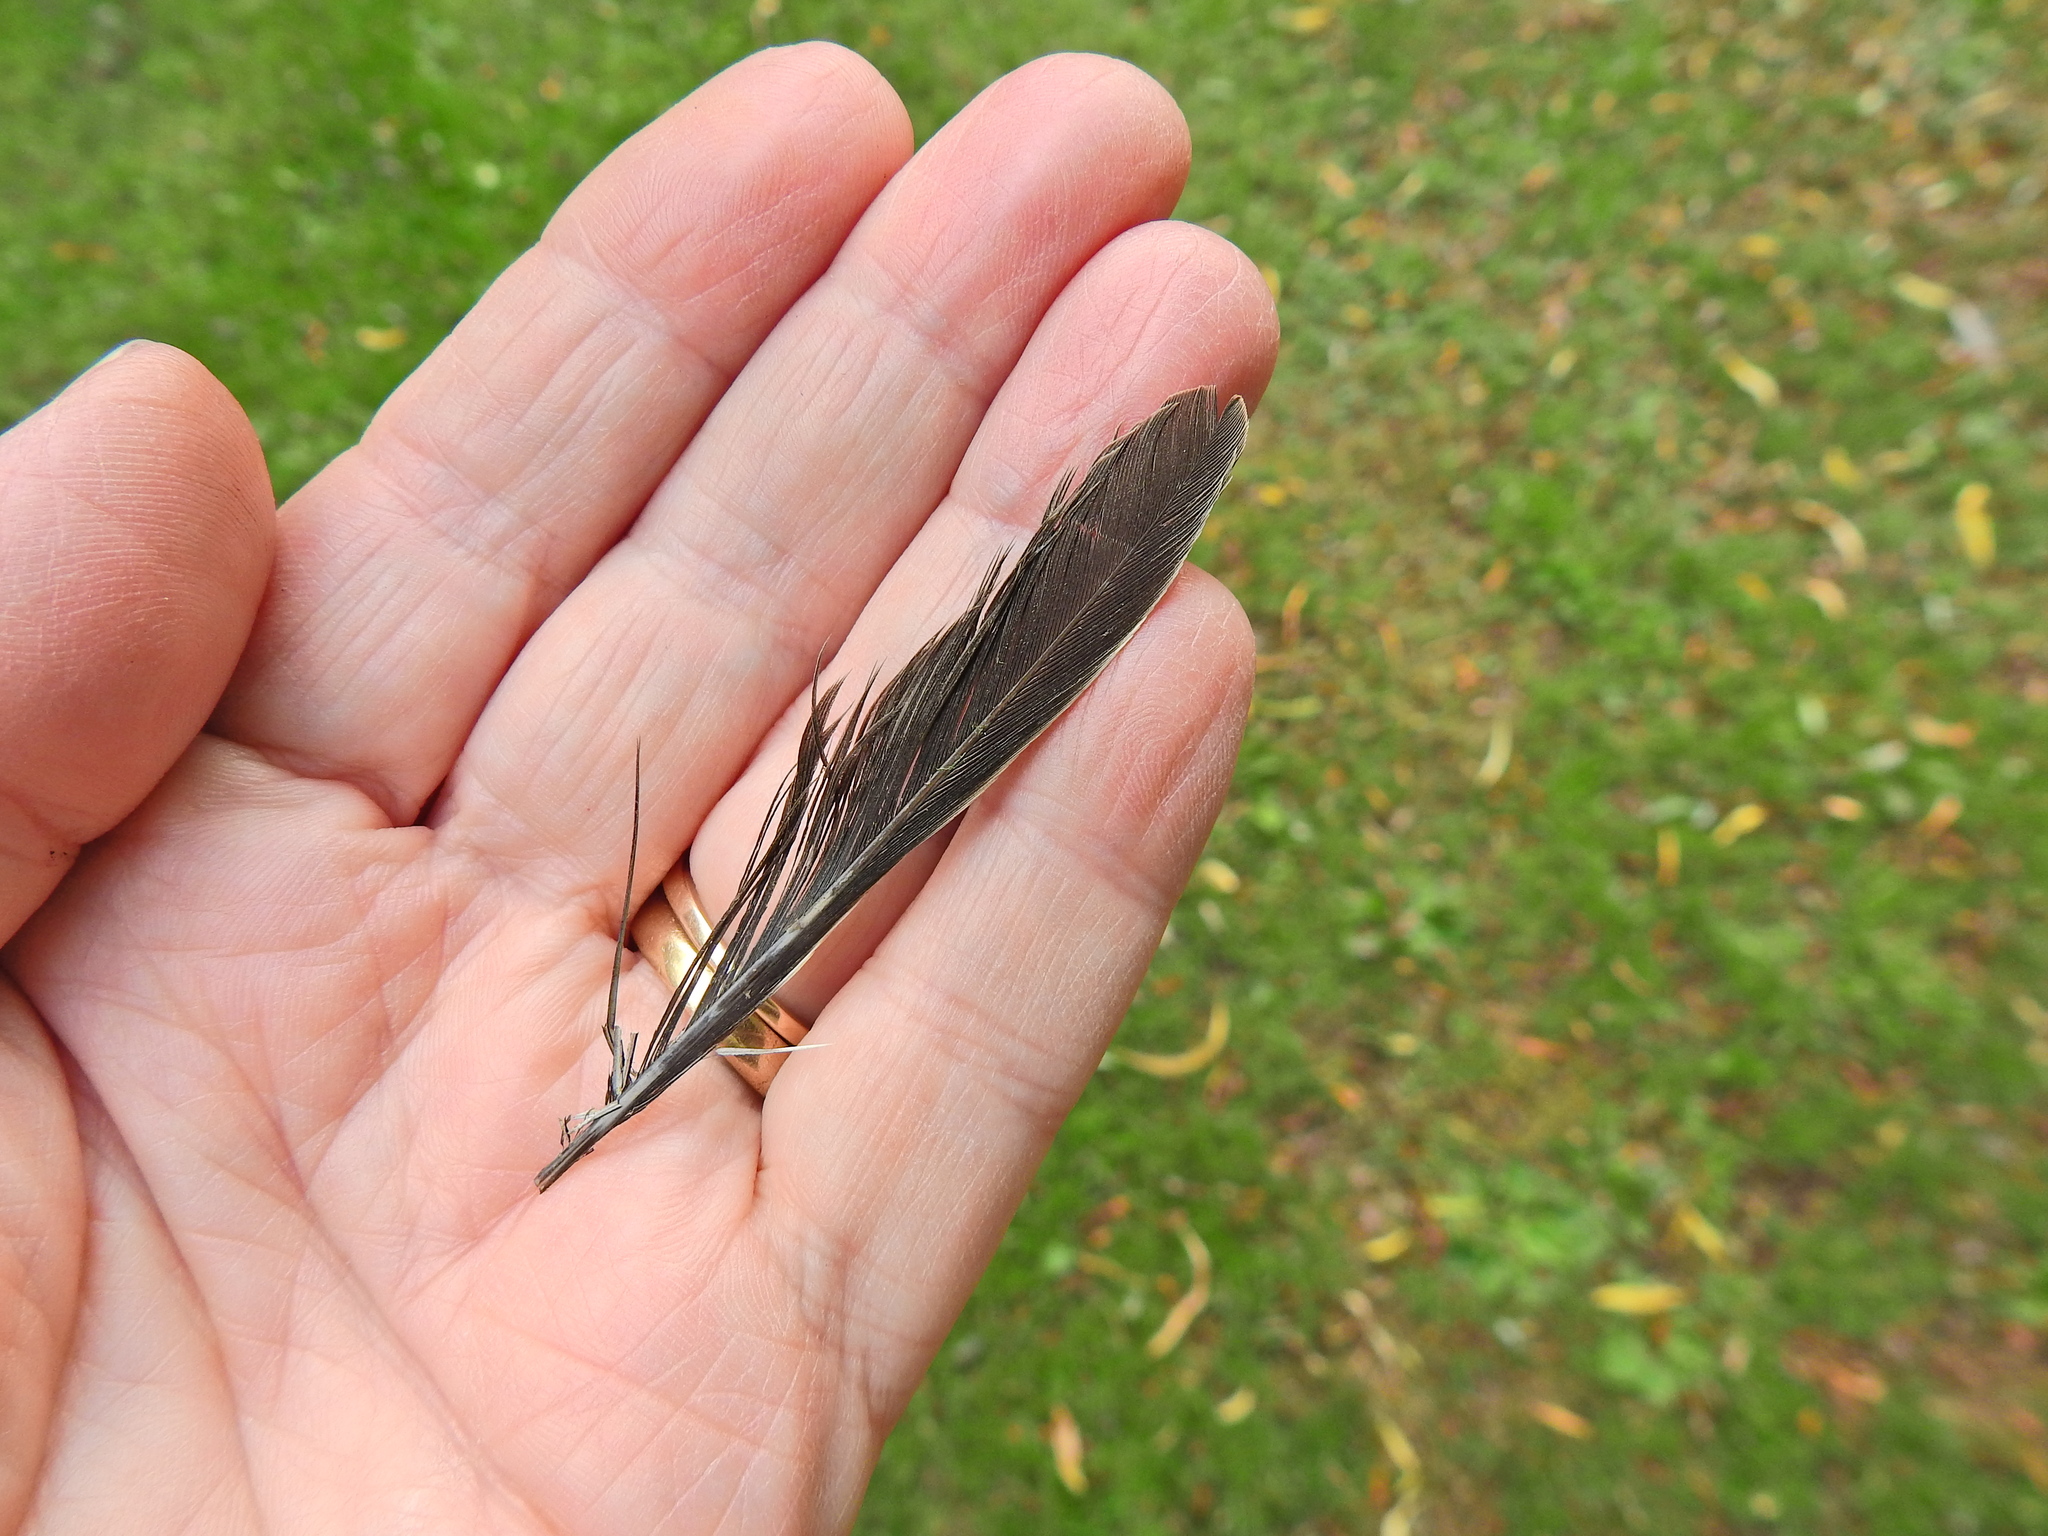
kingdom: Animalia
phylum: Chordata
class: Aves
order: Columbiformes
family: Columbidae
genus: Columba
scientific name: Columba palumbus
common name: Common wood pigeon
